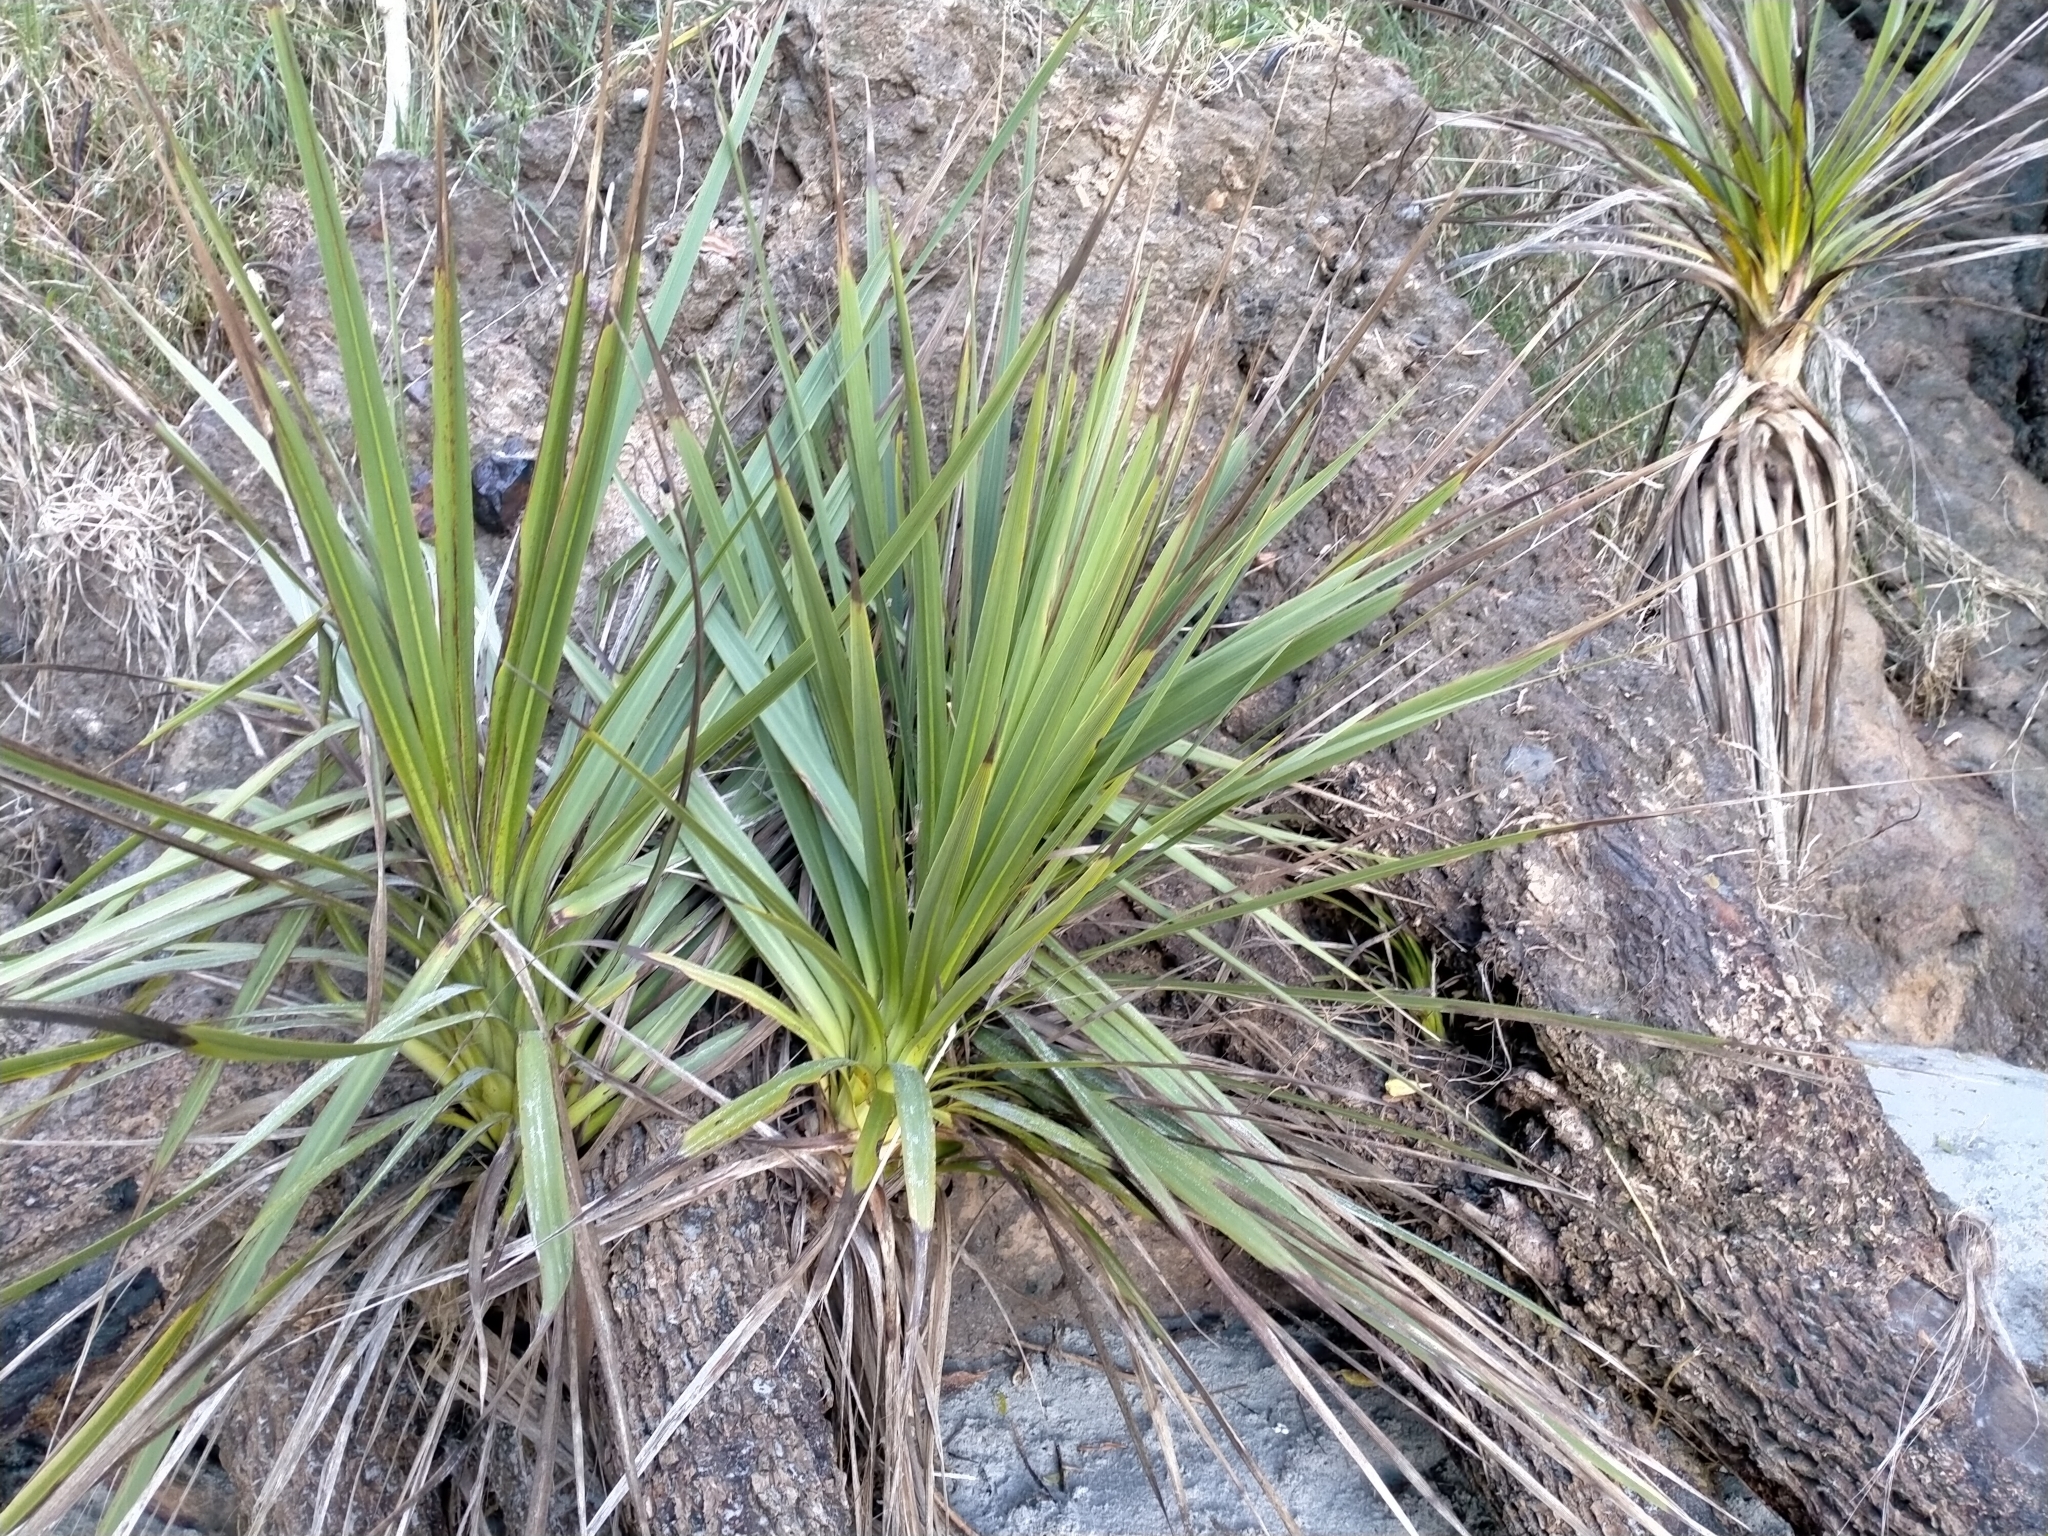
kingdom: Plantae
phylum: Tracheophyta
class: Liliopsida
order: Asparagales
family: Asparagaceae
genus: Cordyline
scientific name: Cordyline australis
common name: Cabbage-palm
